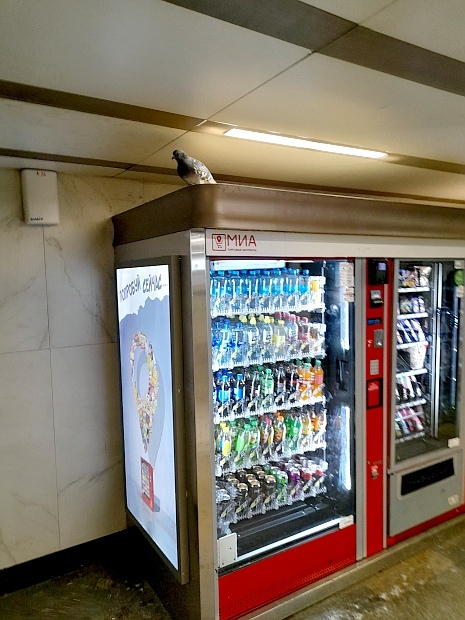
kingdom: Animalia
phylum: Chordata
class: Aves
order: Columbiformes
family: Columbidae
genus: Columba
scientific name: Columba livia
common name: Rock pigeon
